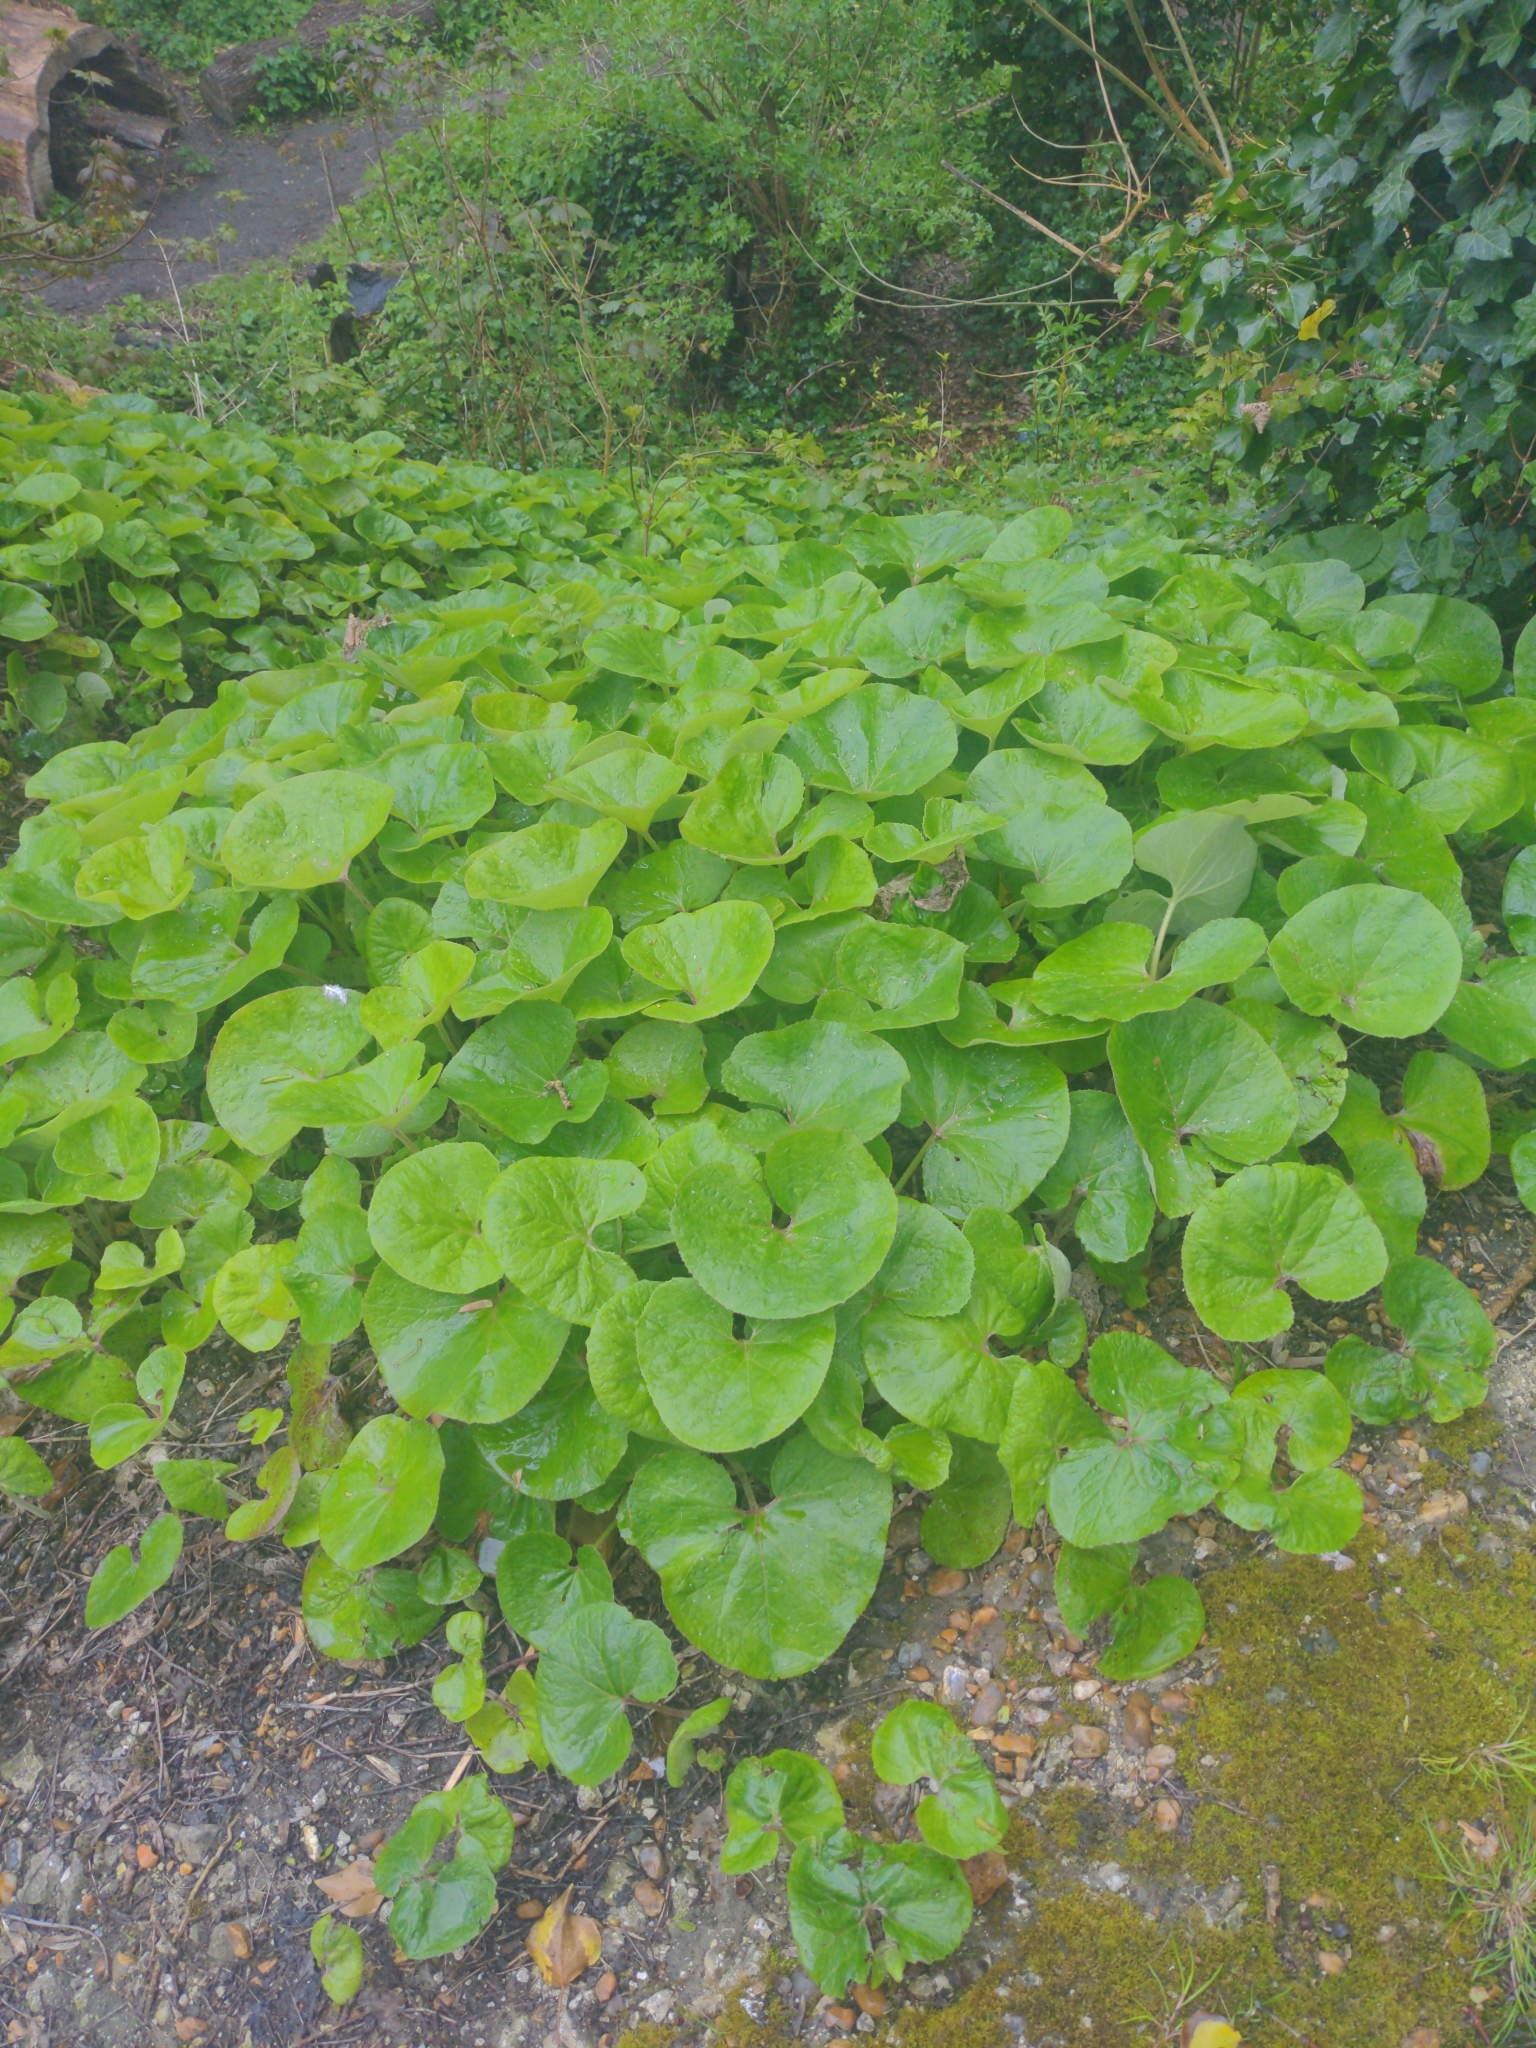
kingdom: Plantae
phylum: Tracheophyta
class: Magnoliopsida
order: Asterales
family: Asteraceae
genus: Petasites
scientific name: Petasites pyrenaicus
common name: Winter heliotrope
